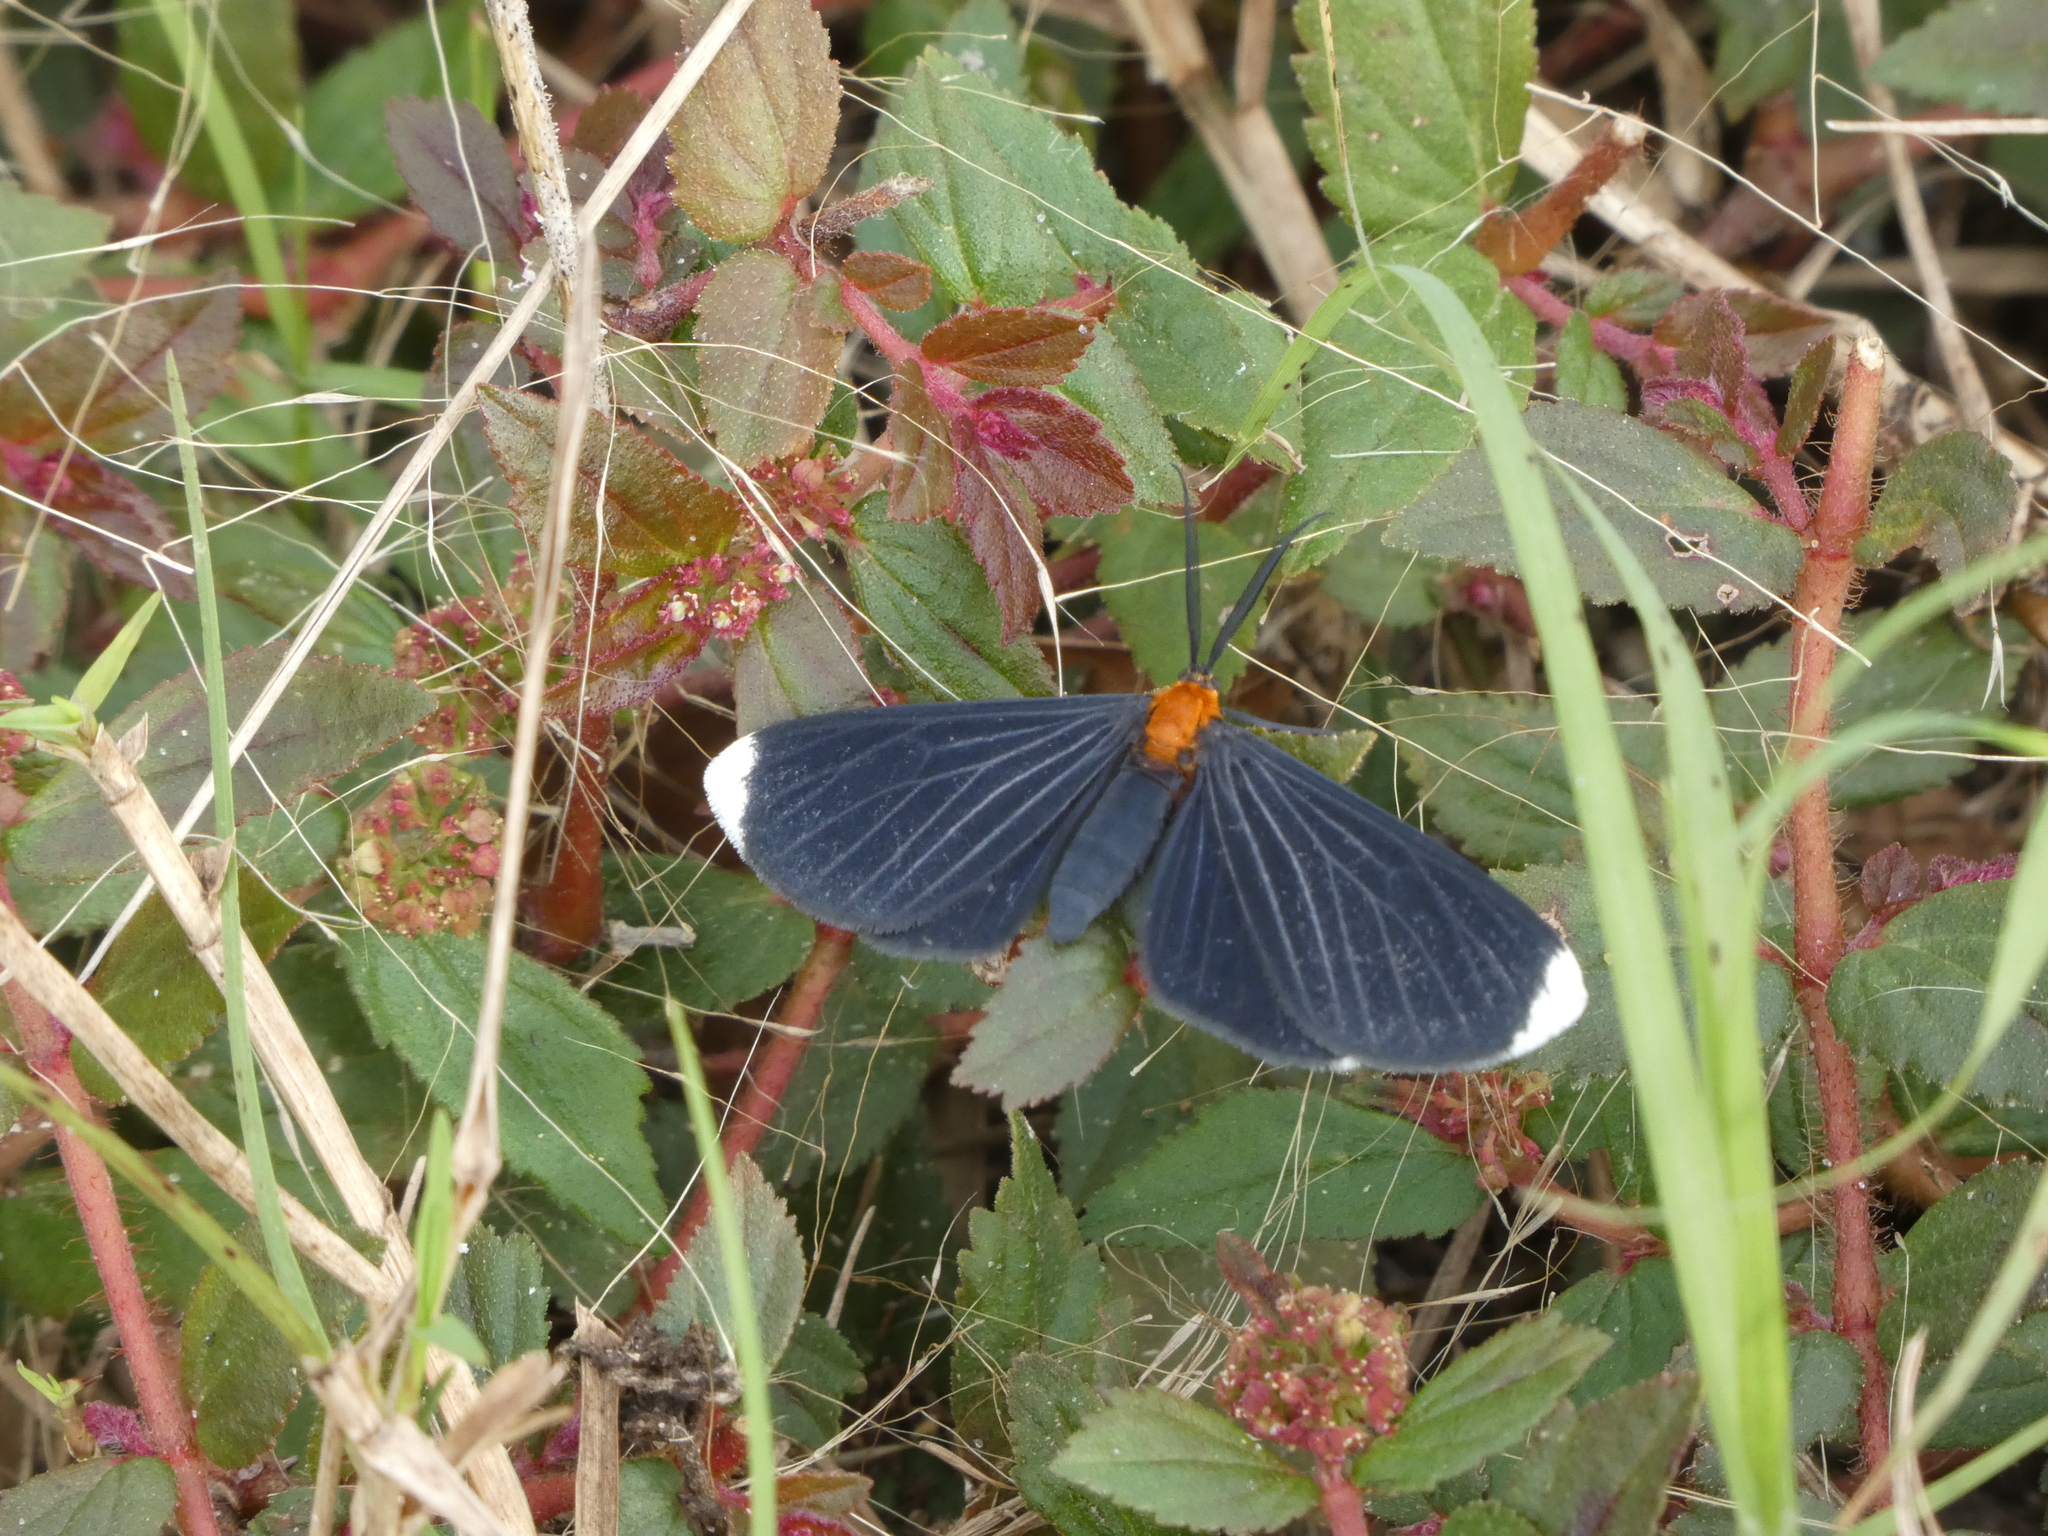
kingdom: Animalia
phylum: Arthropoda
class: Insecta
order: Lepidoptera
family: Geometridae
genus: Melanchroia
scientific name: Melanchroia chephise
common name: White-tipped black
